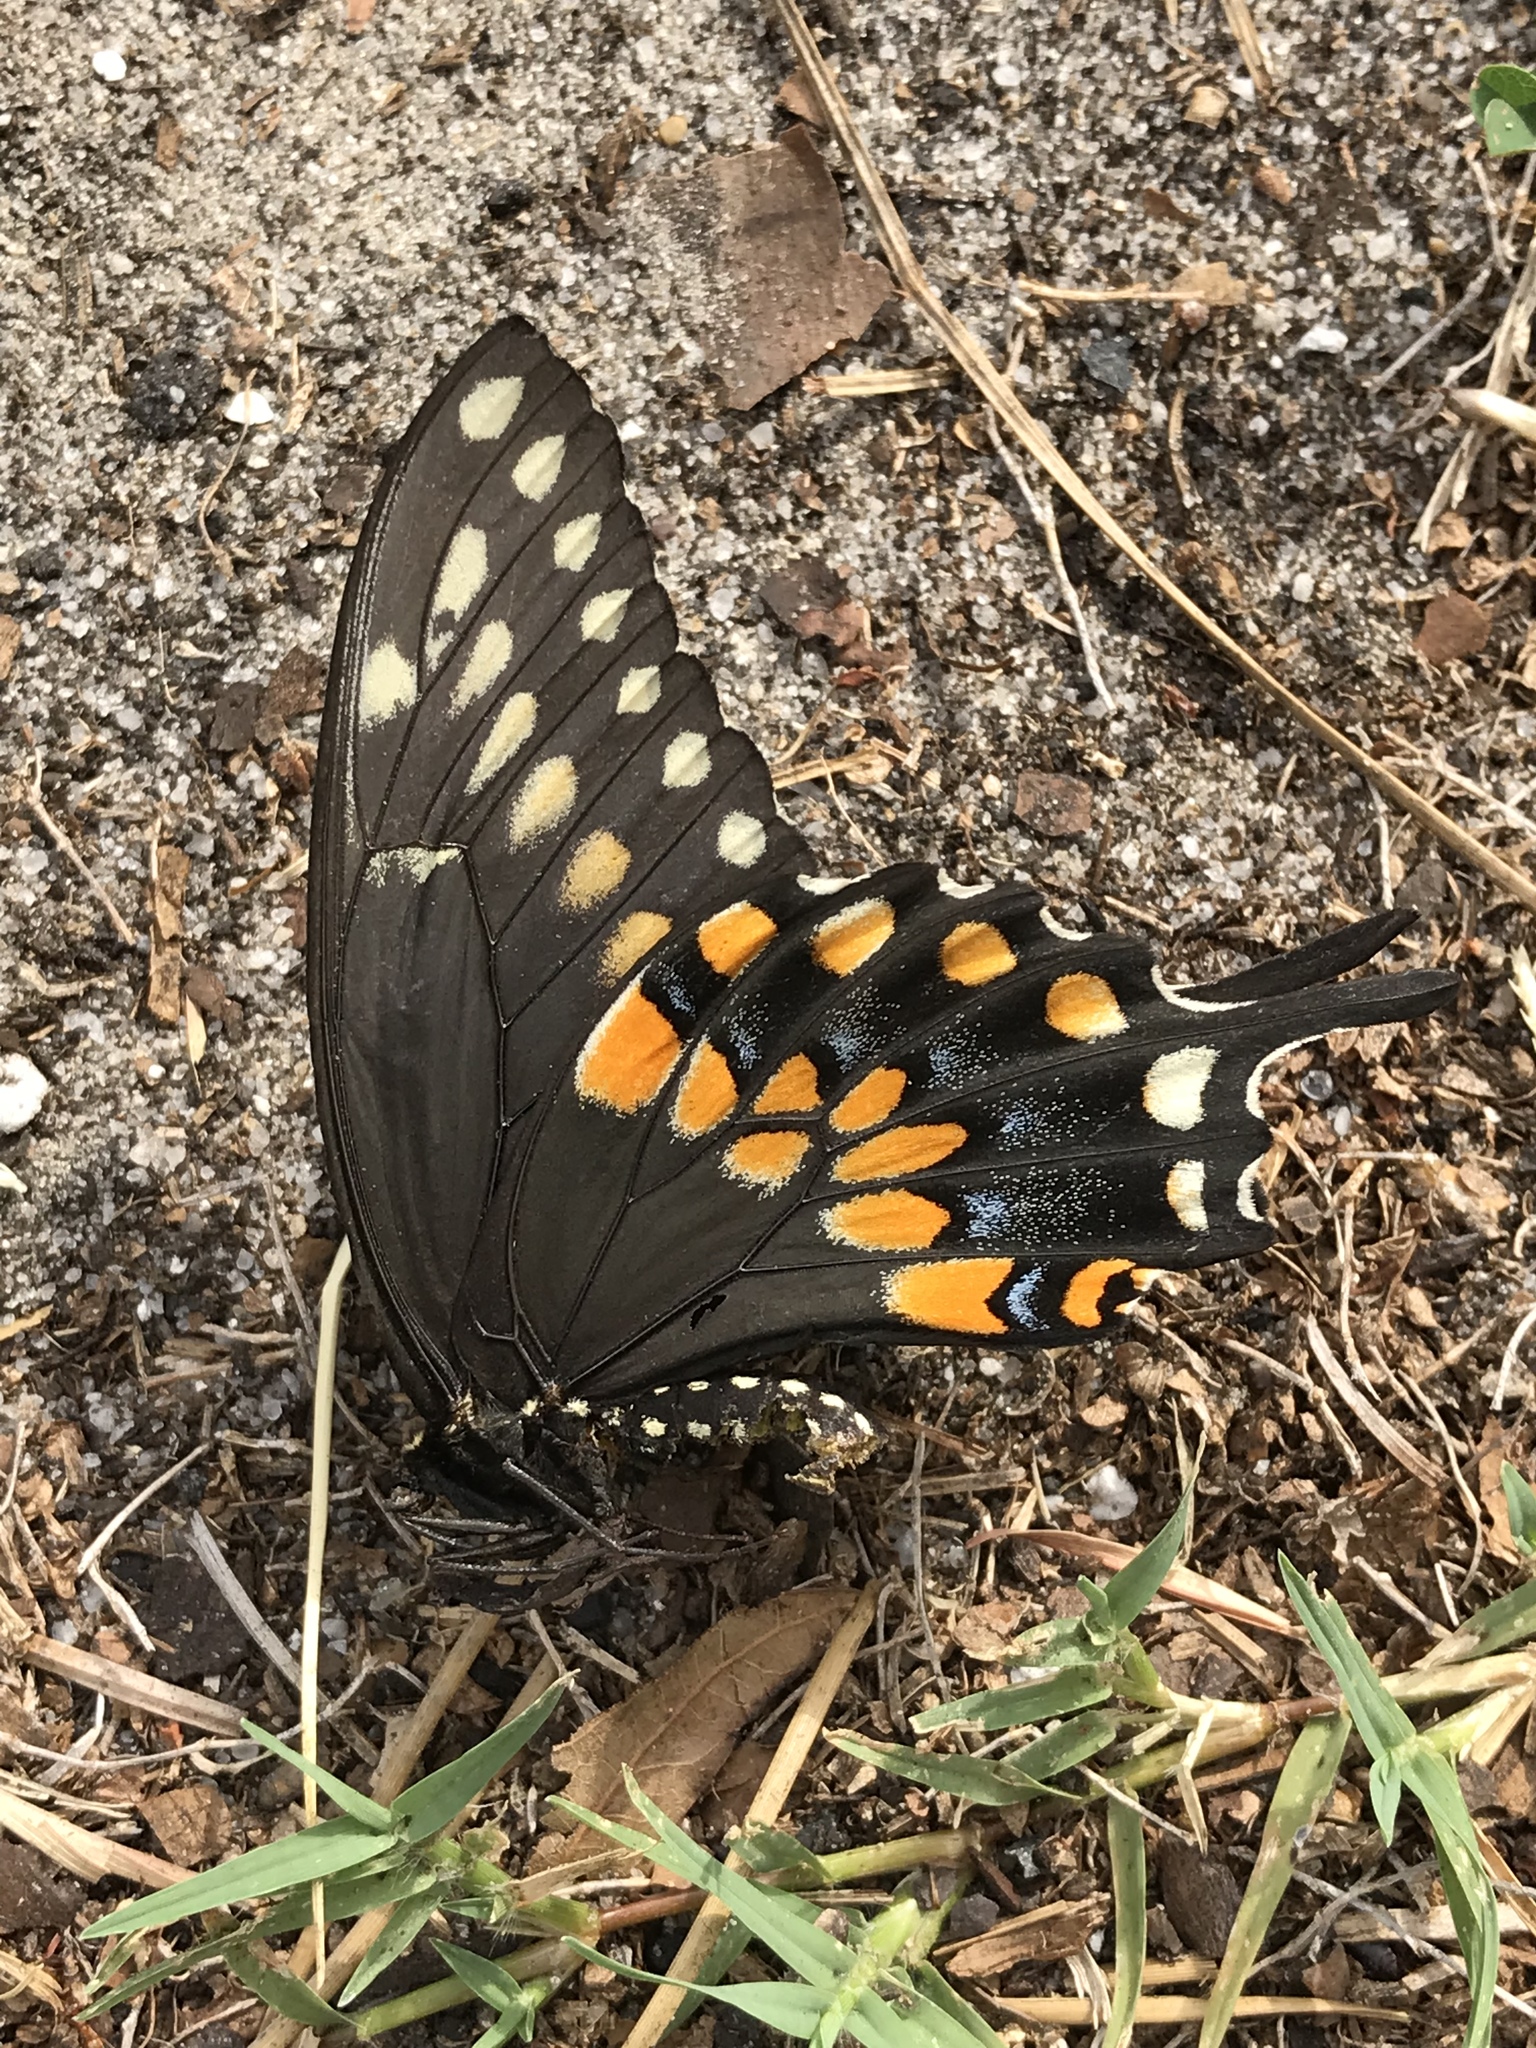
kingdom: Animalia
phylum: Arthropoda
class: Insecta
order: Lepidoptera
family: Papilionidae
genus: Papilio
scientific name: Papilio polyxenes
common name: Black swallowtail
